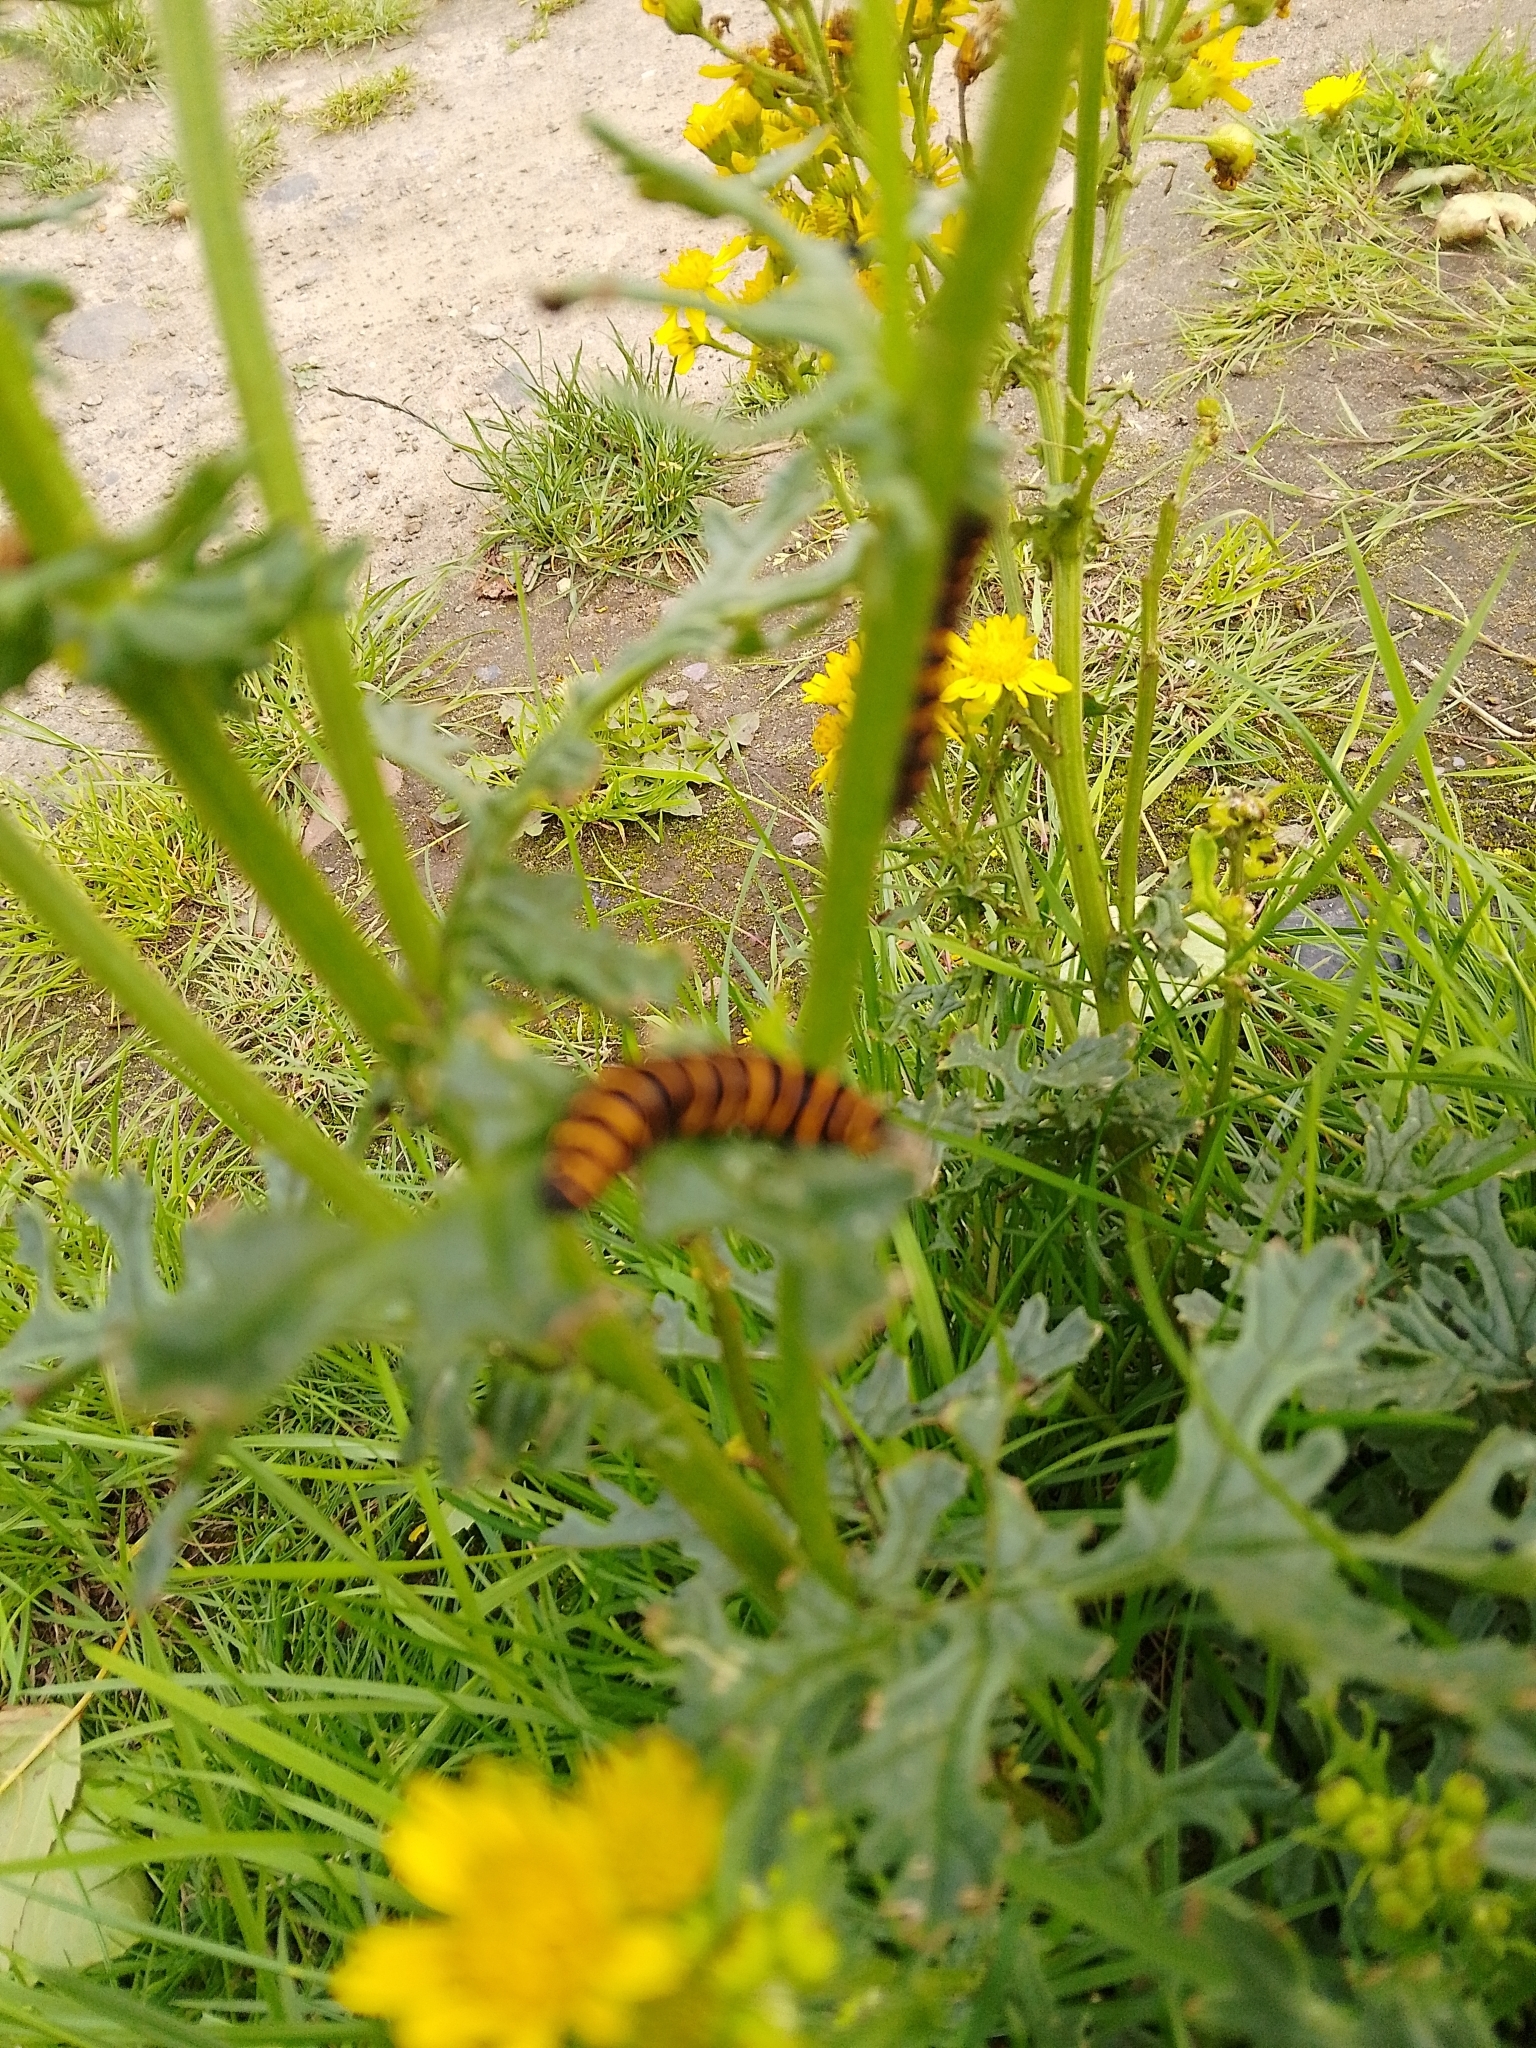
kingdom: Animalia
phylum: Arthropoda
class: Insecta
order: Lepidoptera
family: Erebidae
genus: Tyria
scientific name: Tyria jacobaeae
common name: Cinnabar
